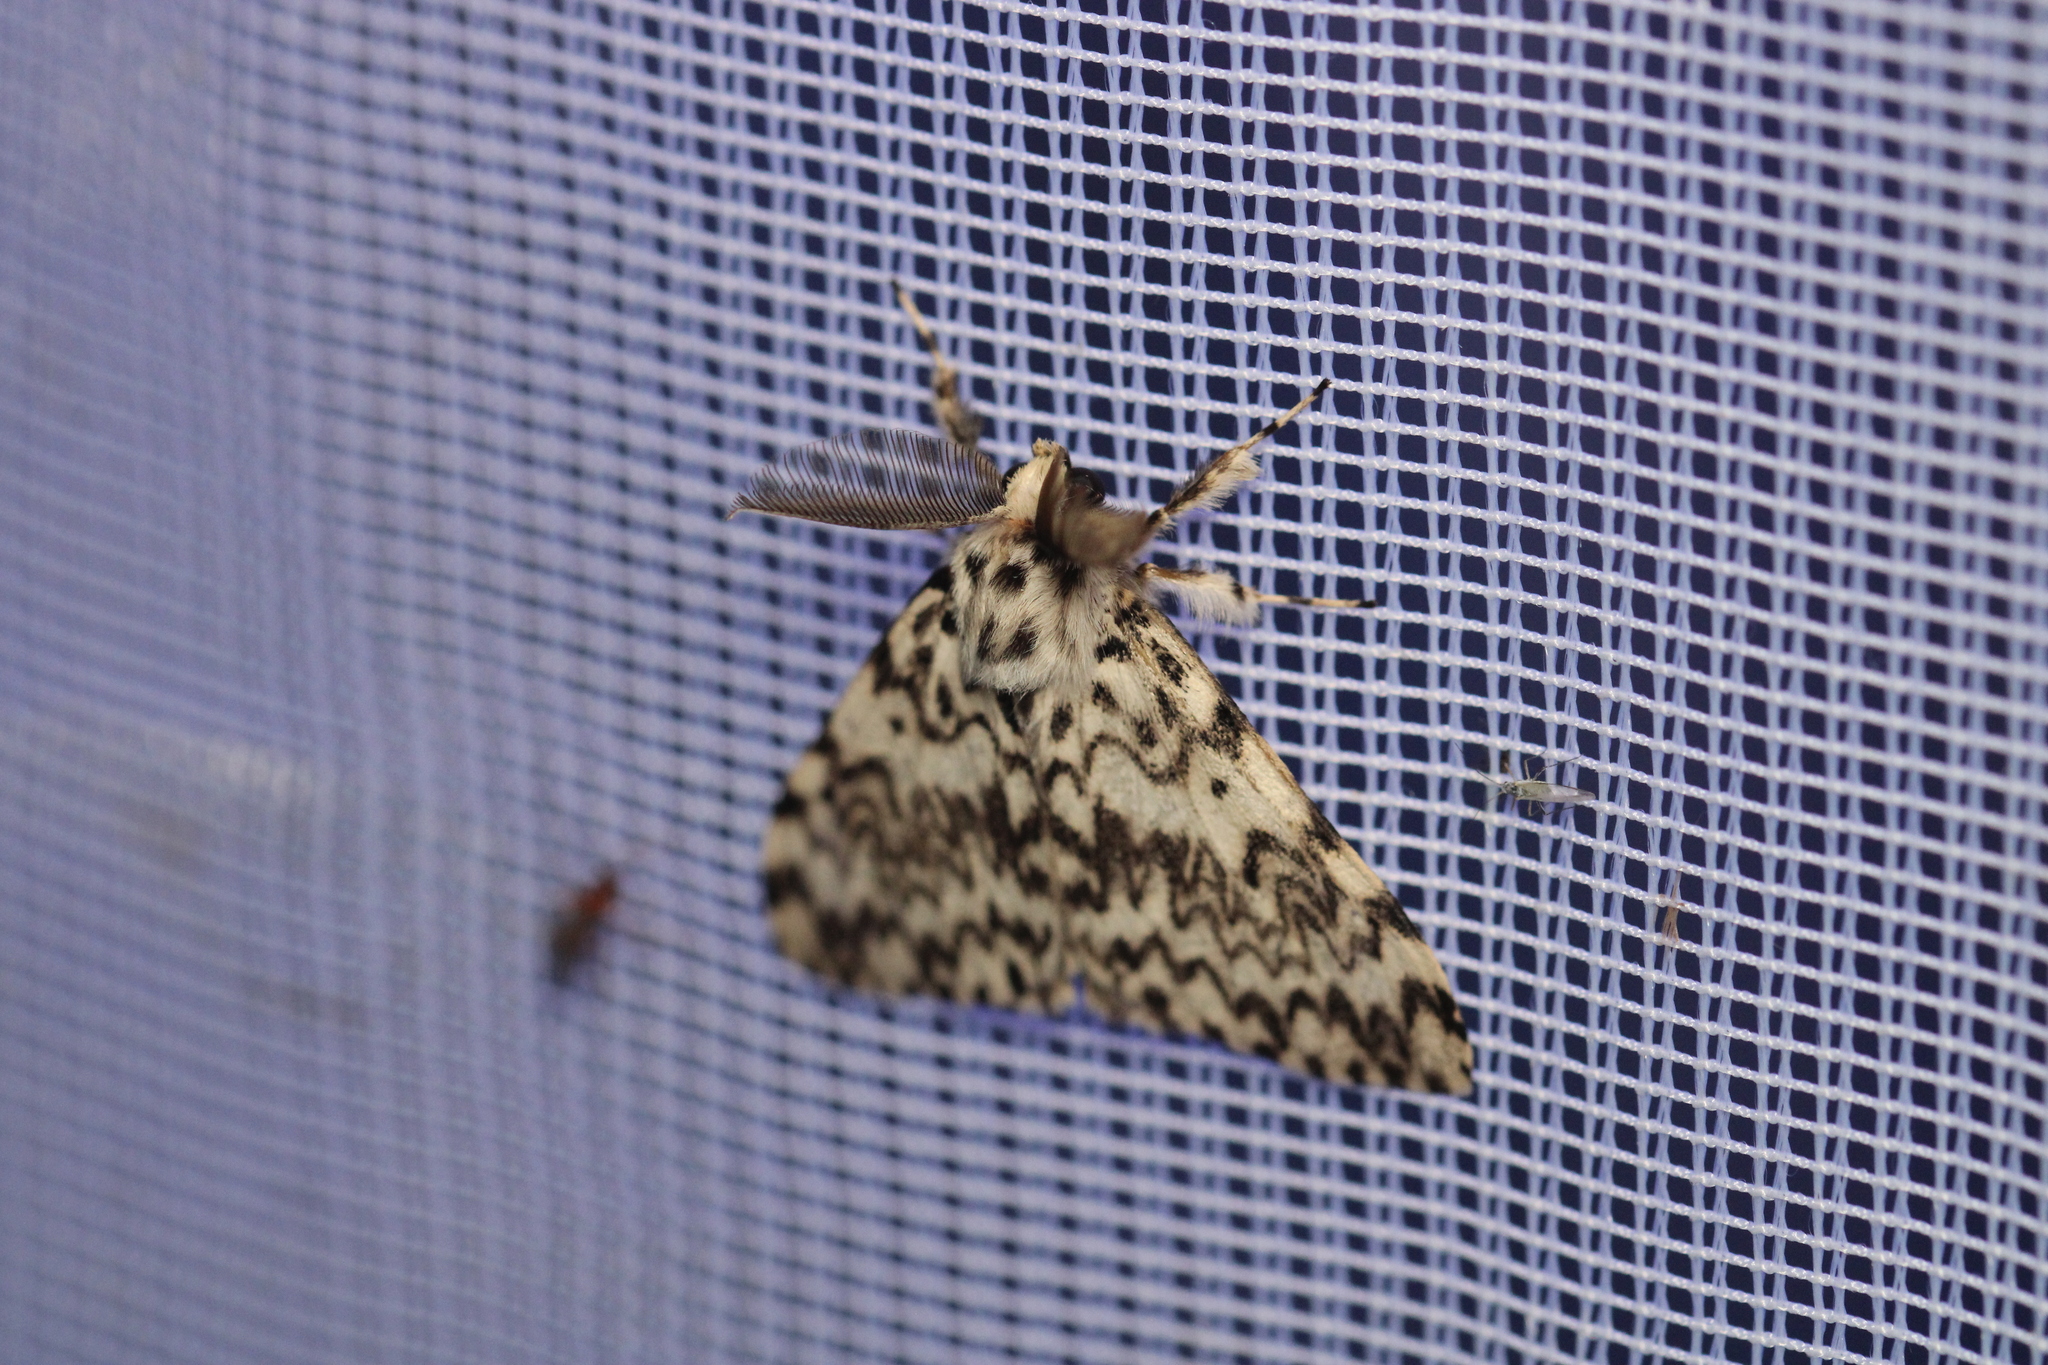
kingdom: Animalia
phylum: Arthropoda
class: Insecta
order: Lepidoptera
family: Erebidae
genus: Lymantria
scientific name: Lymantria monacha
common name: Black arches
